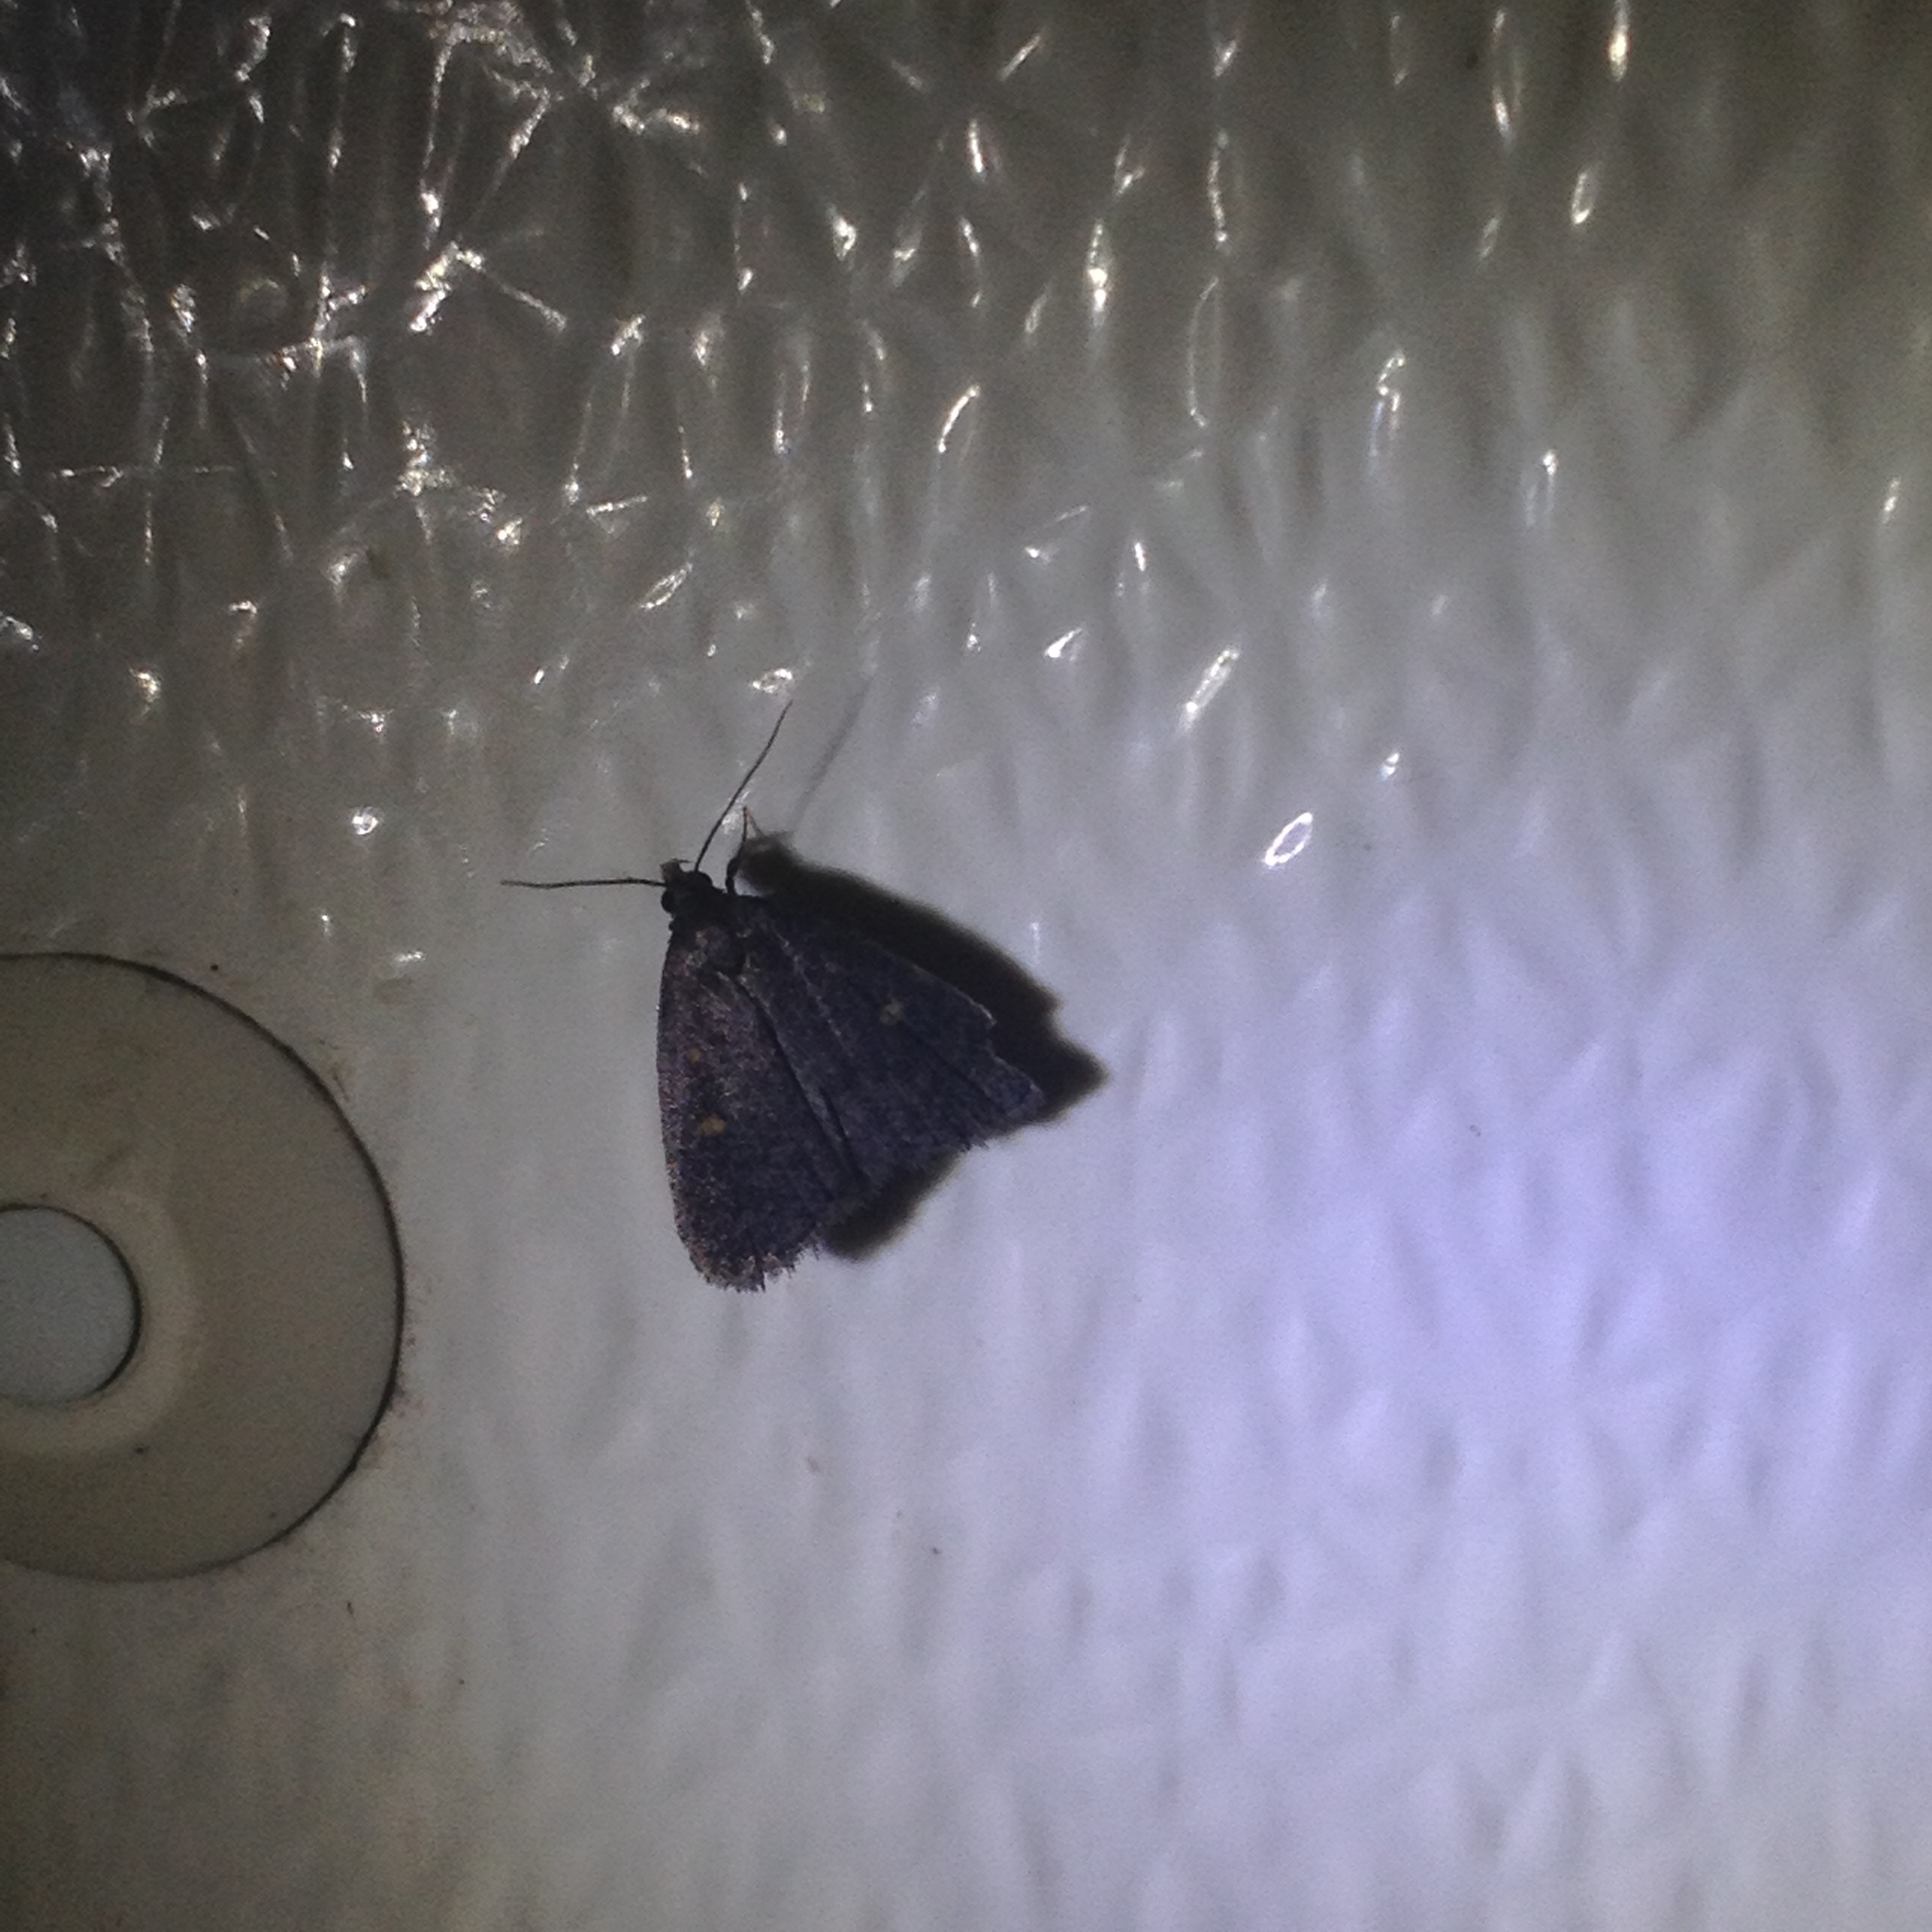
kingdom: Animalia
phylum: Arthropoda
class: Insecta
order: Lepidoptera
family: Erebidae
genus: Idia
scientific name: Idia diminuendis
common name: Orange-spotted idia moth
